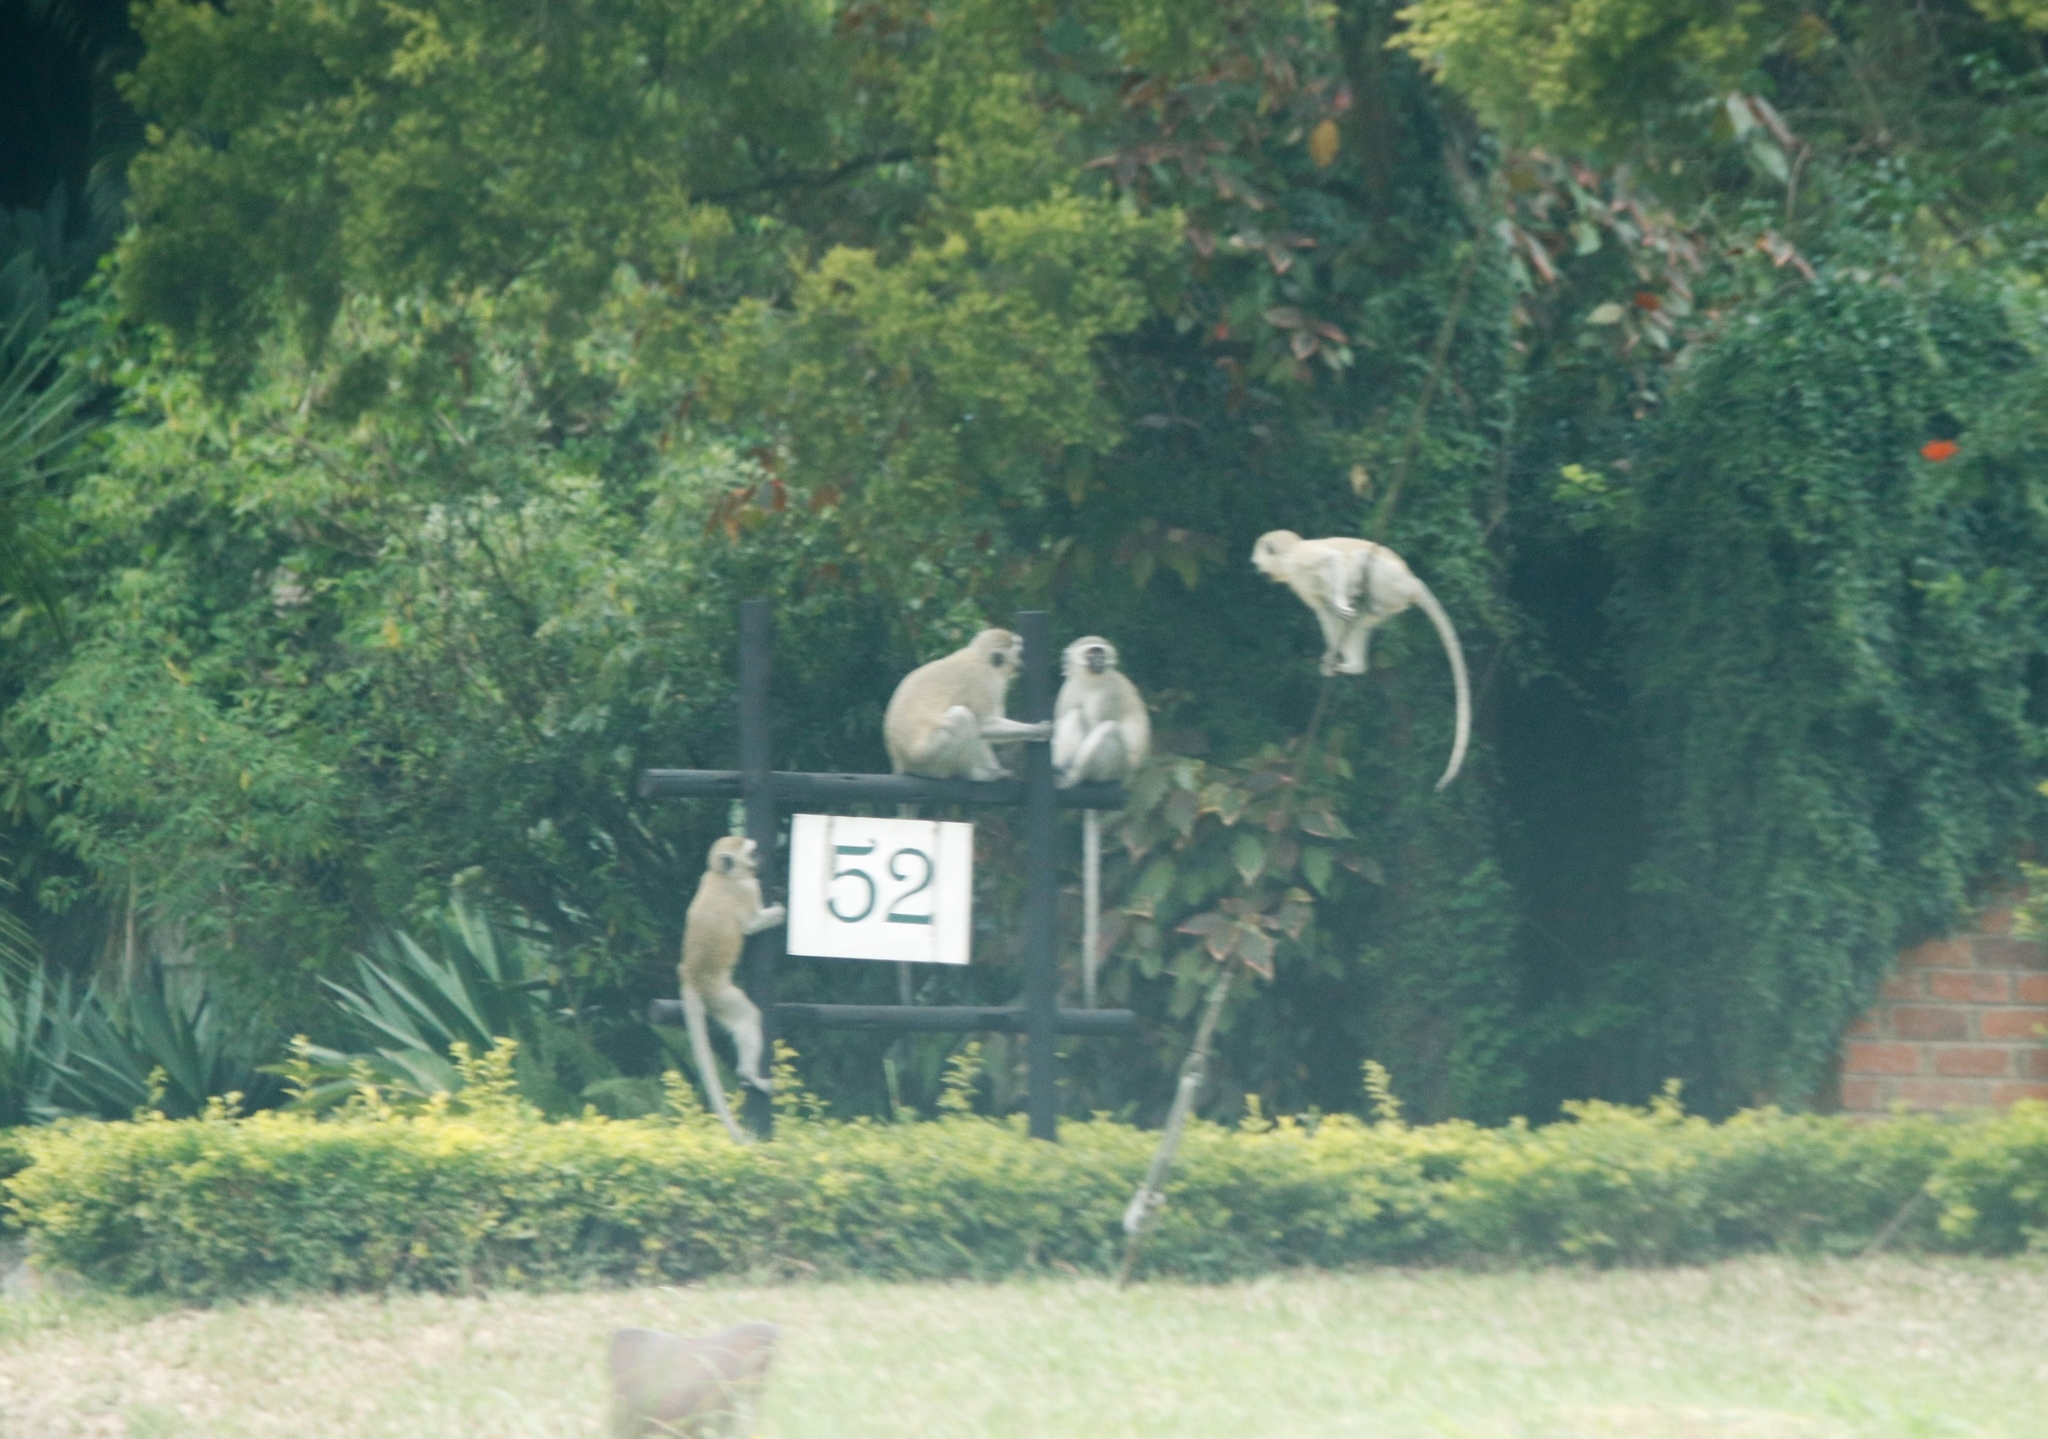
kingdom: Animalia
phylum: Chordata
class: Mammalia
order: Primates
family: Cercopithecidae
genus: Chlorocebus
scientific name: Chlorocebus pygerythrus
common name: Vervet monkey
